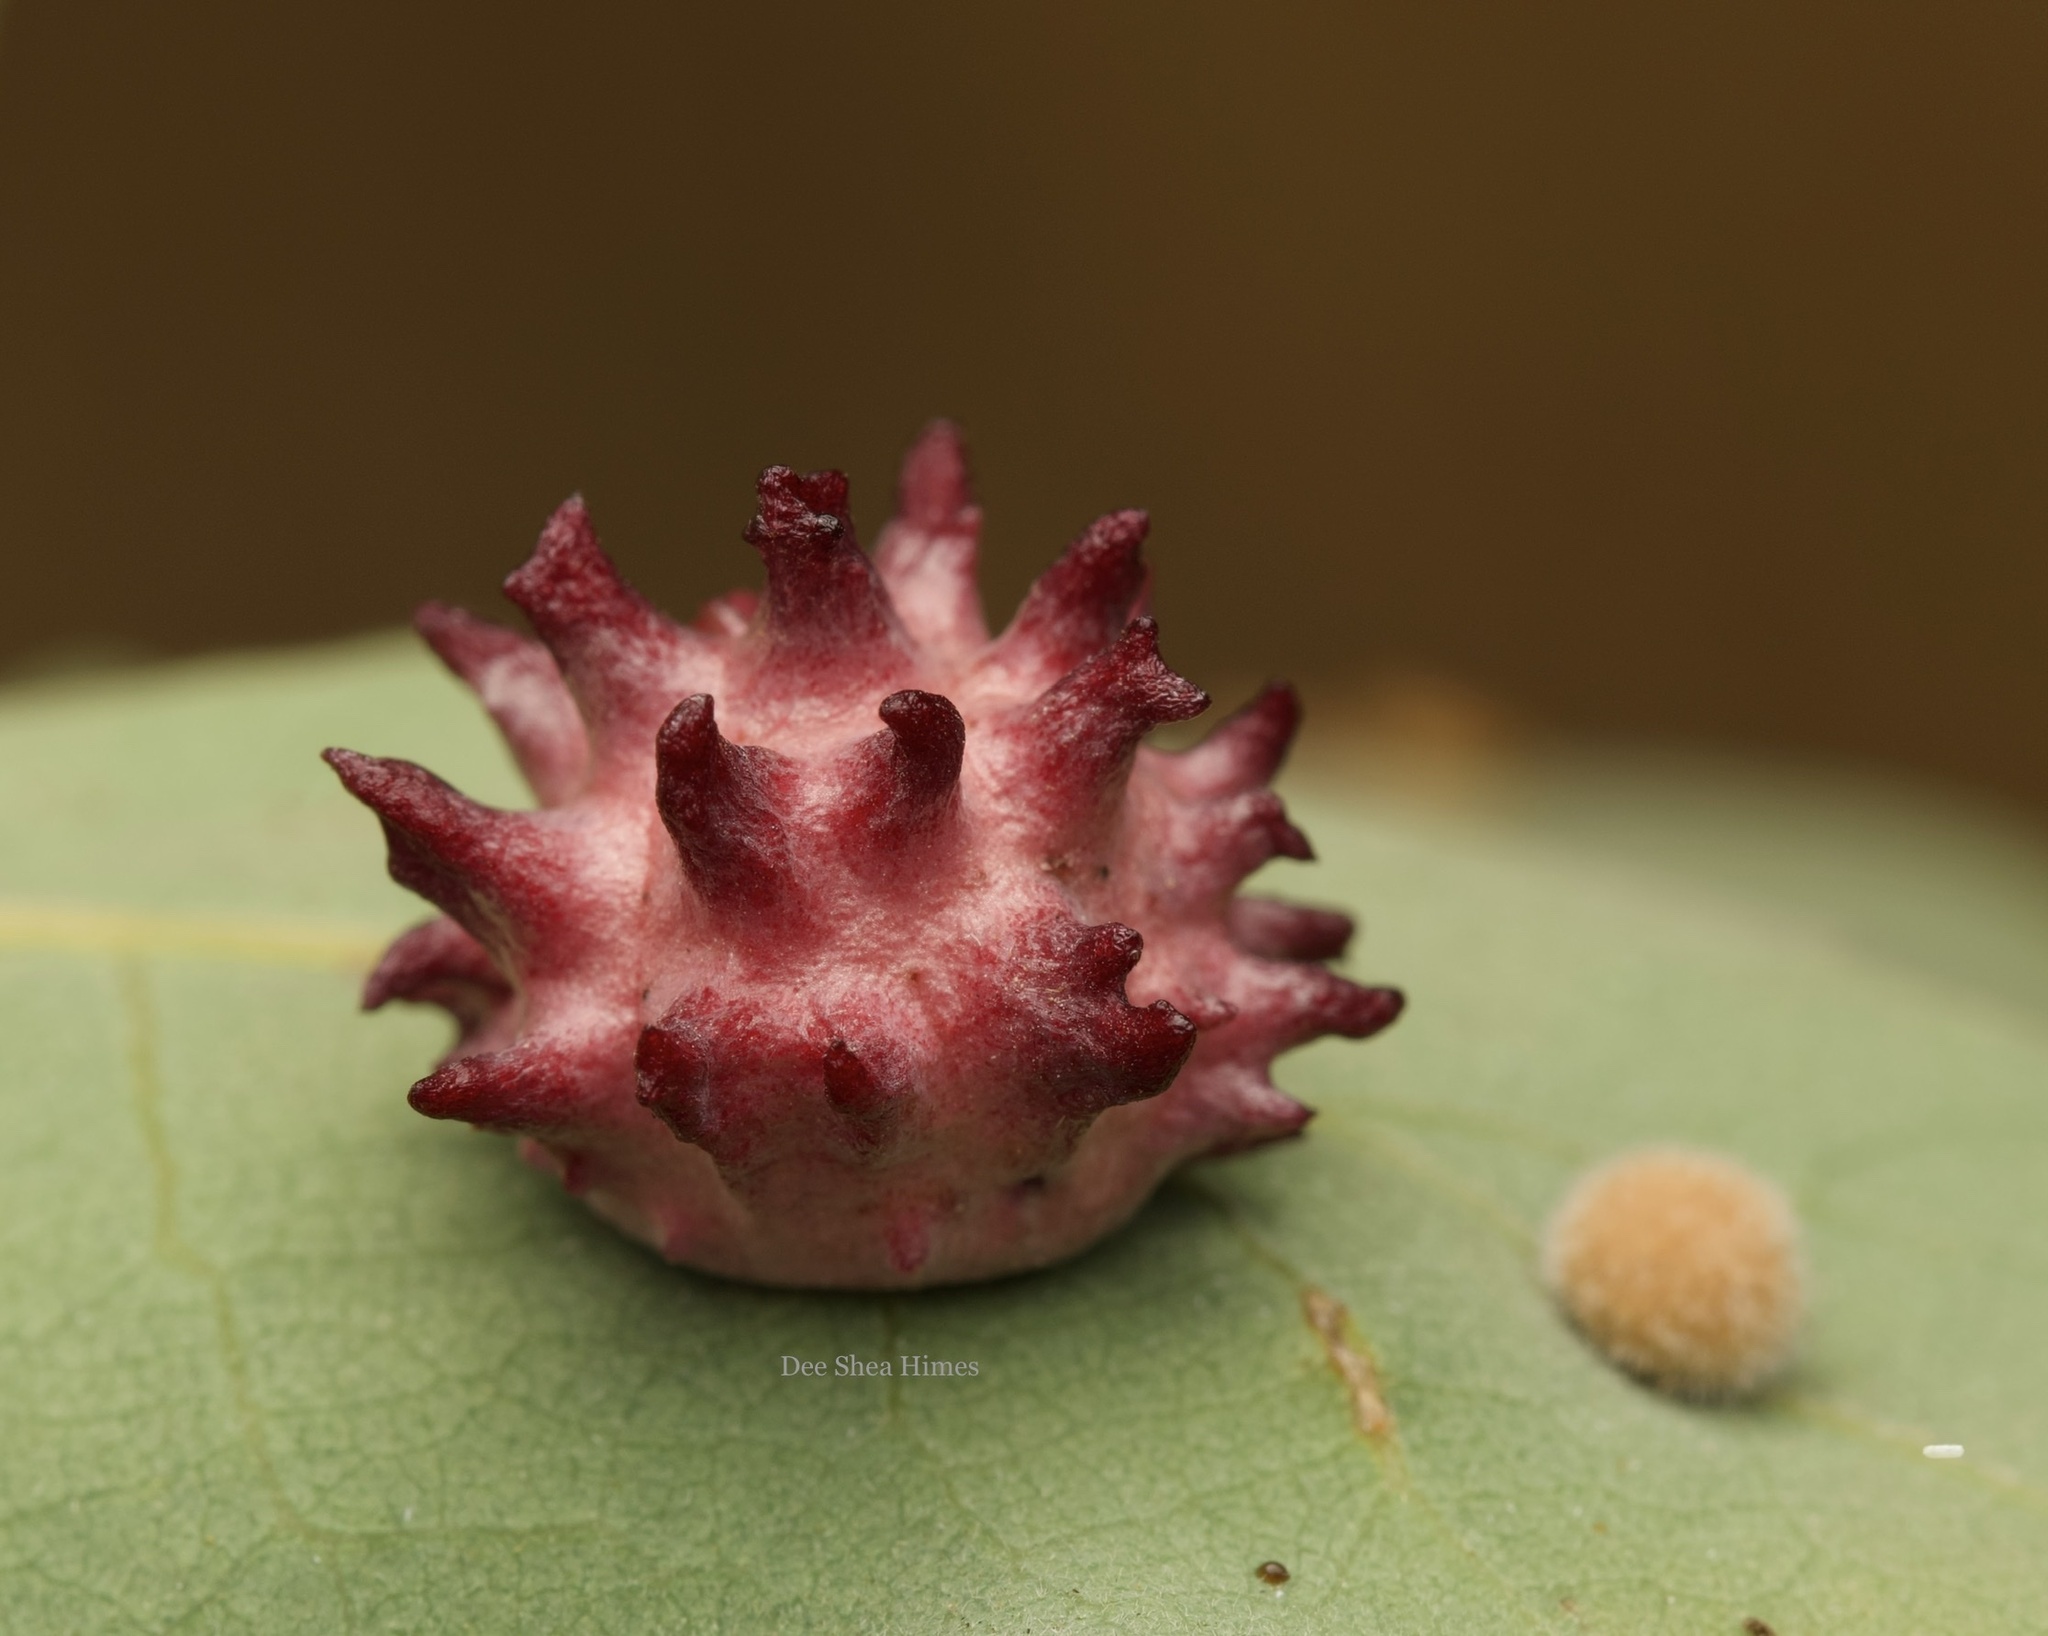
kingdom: Animalia
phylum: Arthropoda
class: Insecta
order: Hymenoptera
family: Cynipidae
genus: Cynips
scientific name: Cynips
